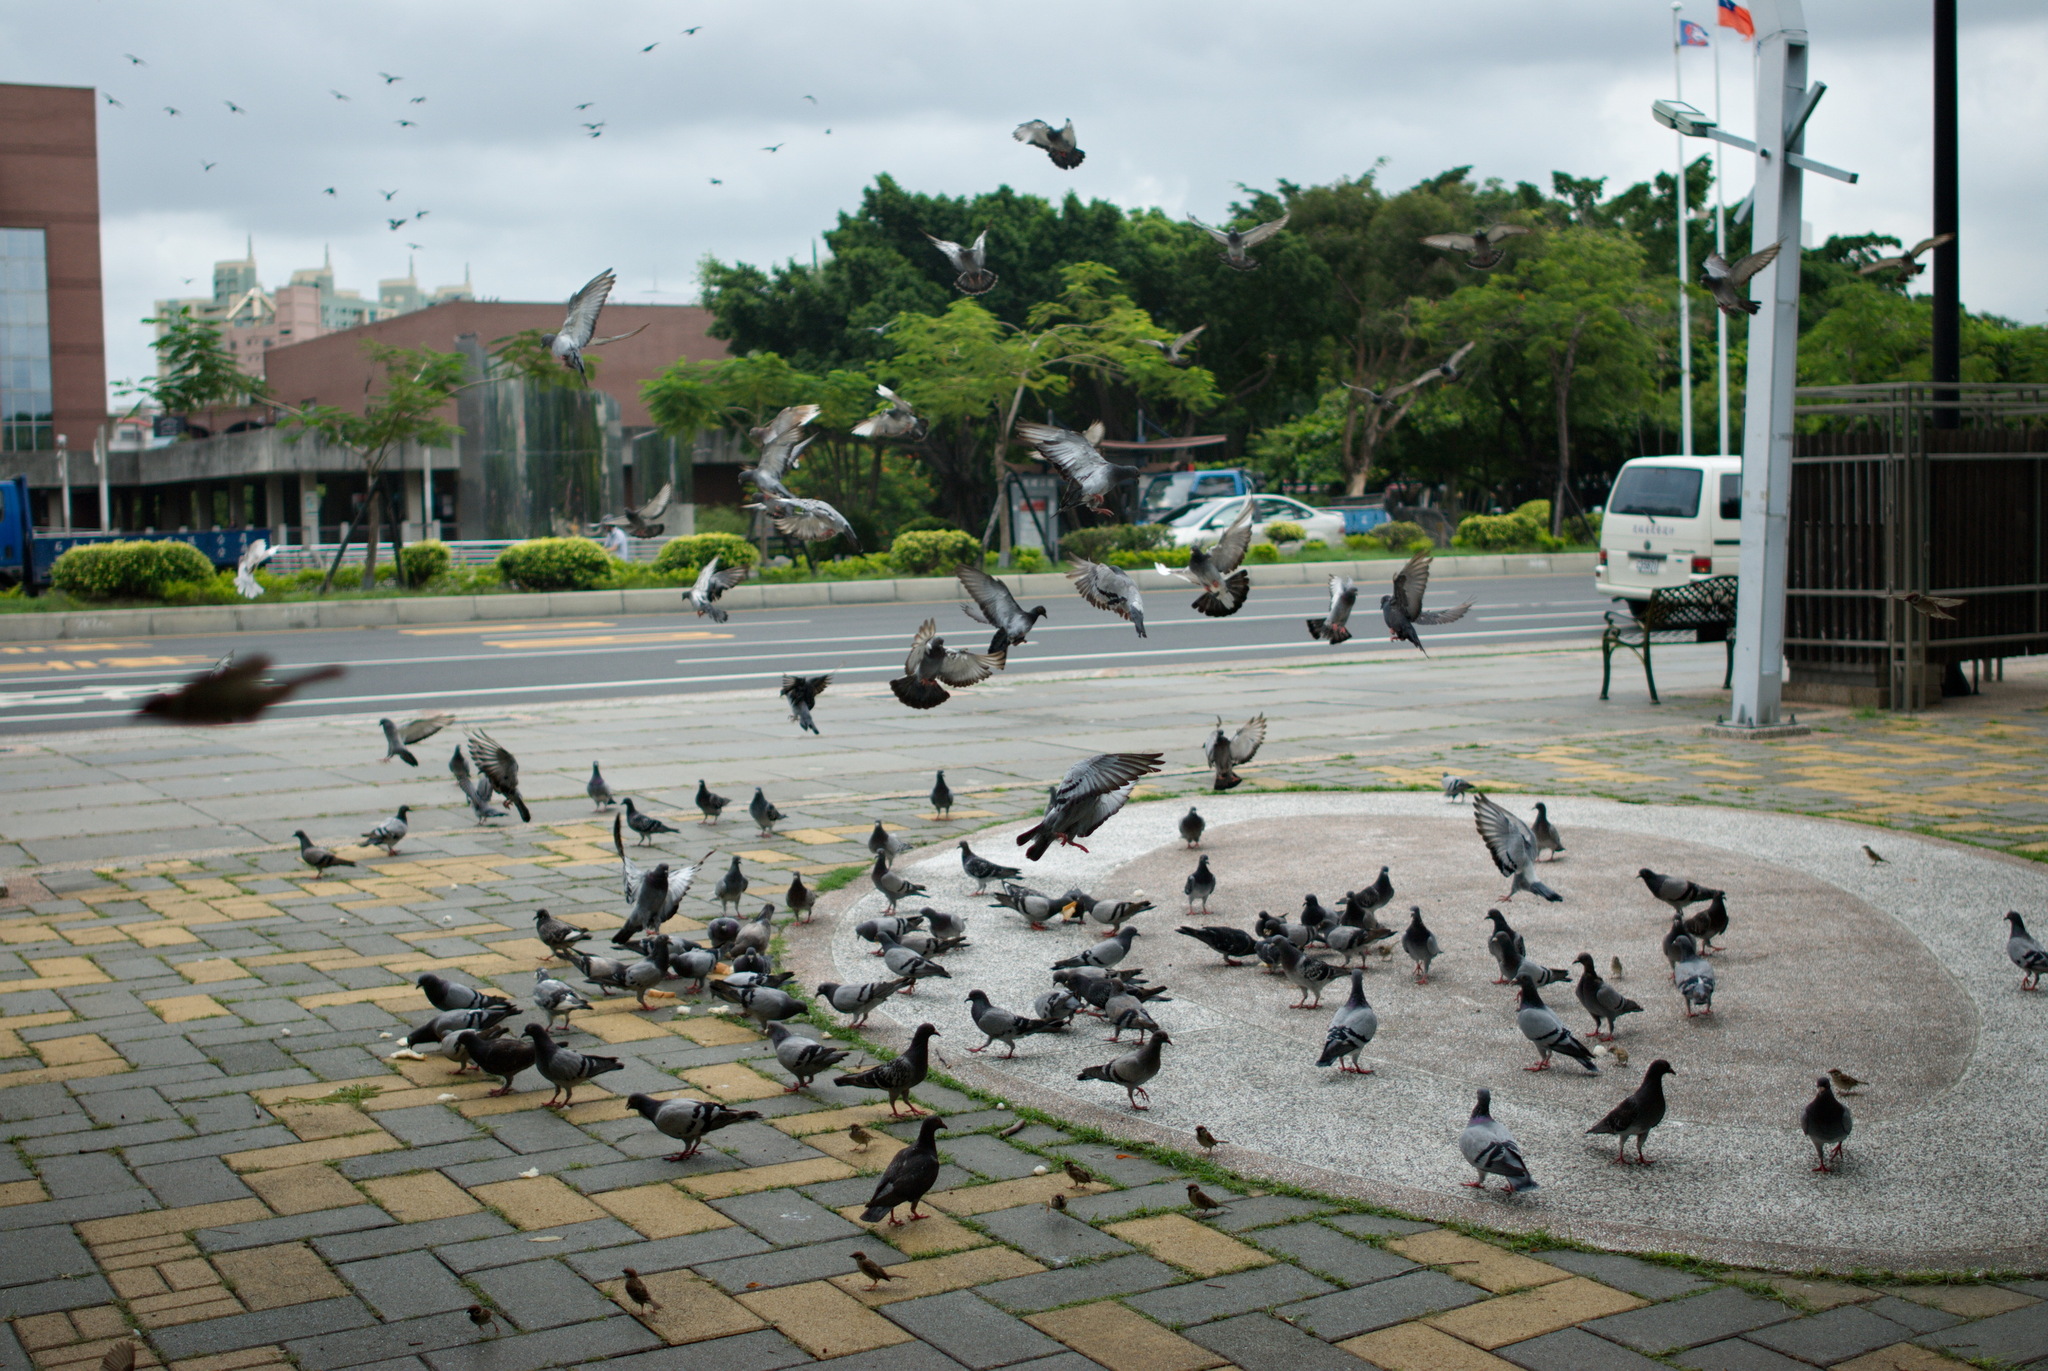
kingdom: Animalia
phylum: Chordata
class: Aves
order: Columbiformes
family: Columbidae
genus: Columba
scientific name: Columba livia
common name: Rock pigeon
